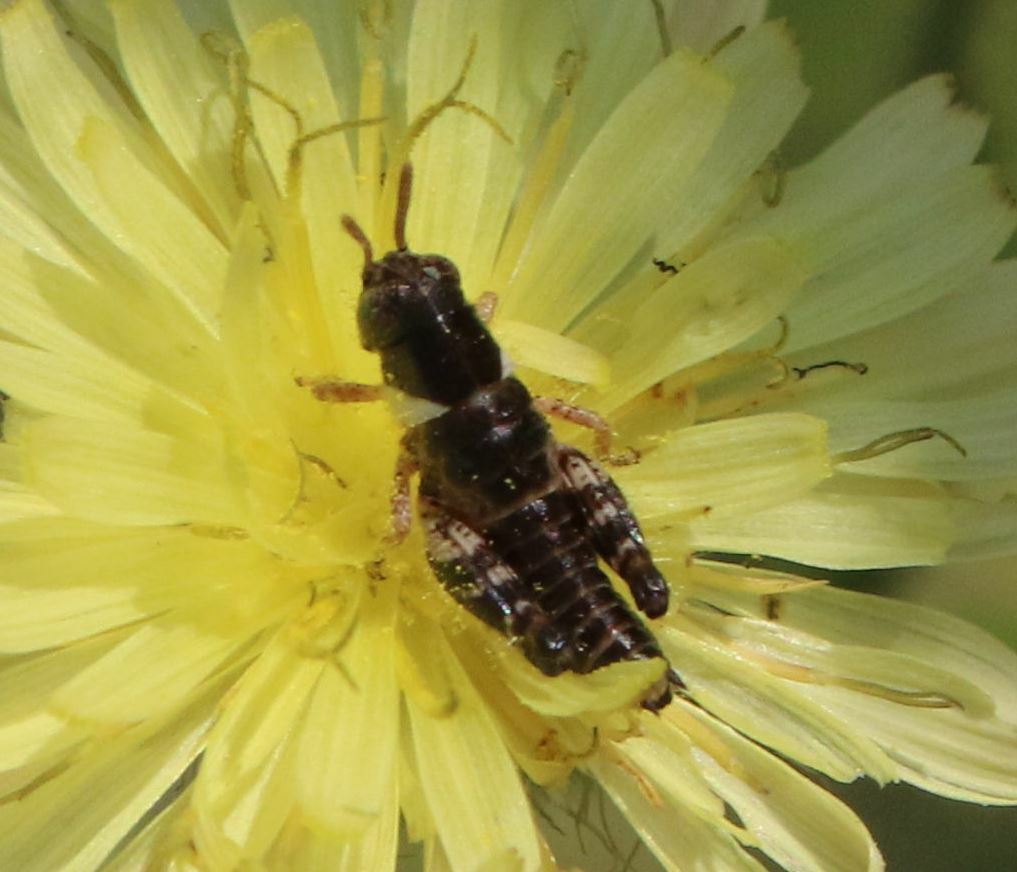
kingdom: Animalia
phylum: Arthropoda
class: Insecta
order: Orthoptera
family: Acrididae
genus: Calliptamus
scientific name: Calliptamus italicus
